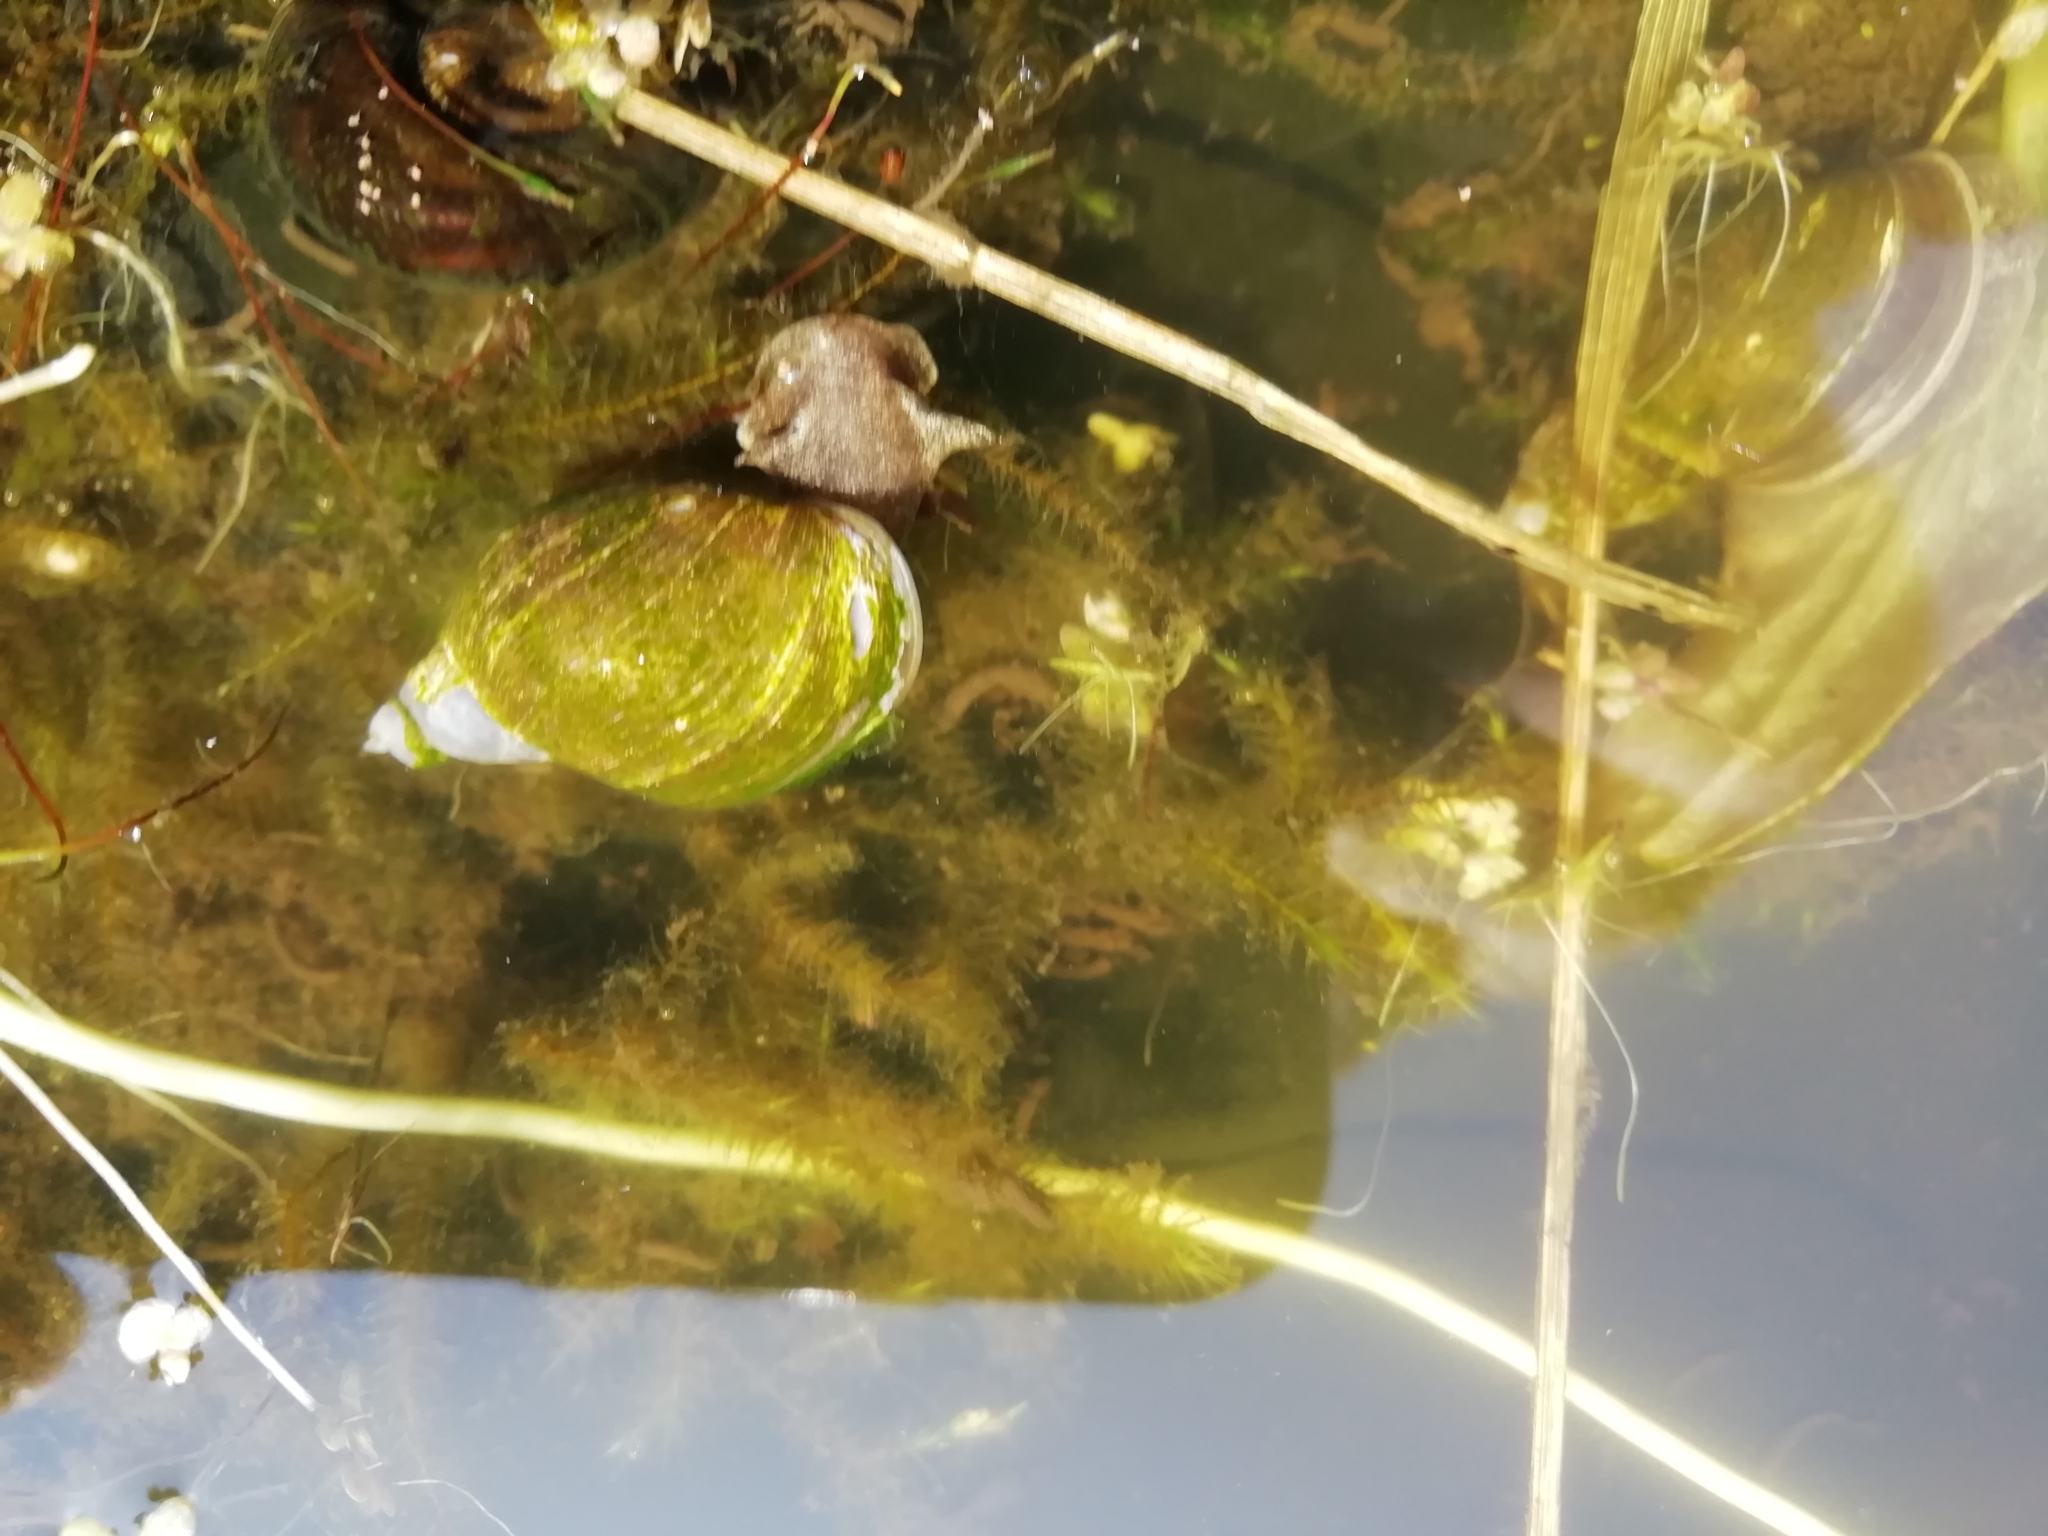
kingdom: Animalia
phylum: Mollusca
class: Gastropoda
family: Lymnaeidae
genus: Lymnaea
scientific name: Lymnaea stagnalis
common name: Great pond snail
